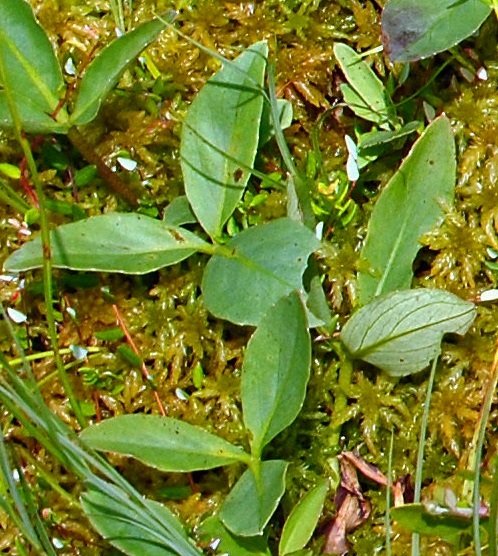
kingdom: Plantae
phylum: Tracheophyta
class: Magnoliopsida
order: Asterales
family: Menyanthaceae
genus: Menyanthes
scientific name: Menyanthes trifoliata
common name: Bogbean
